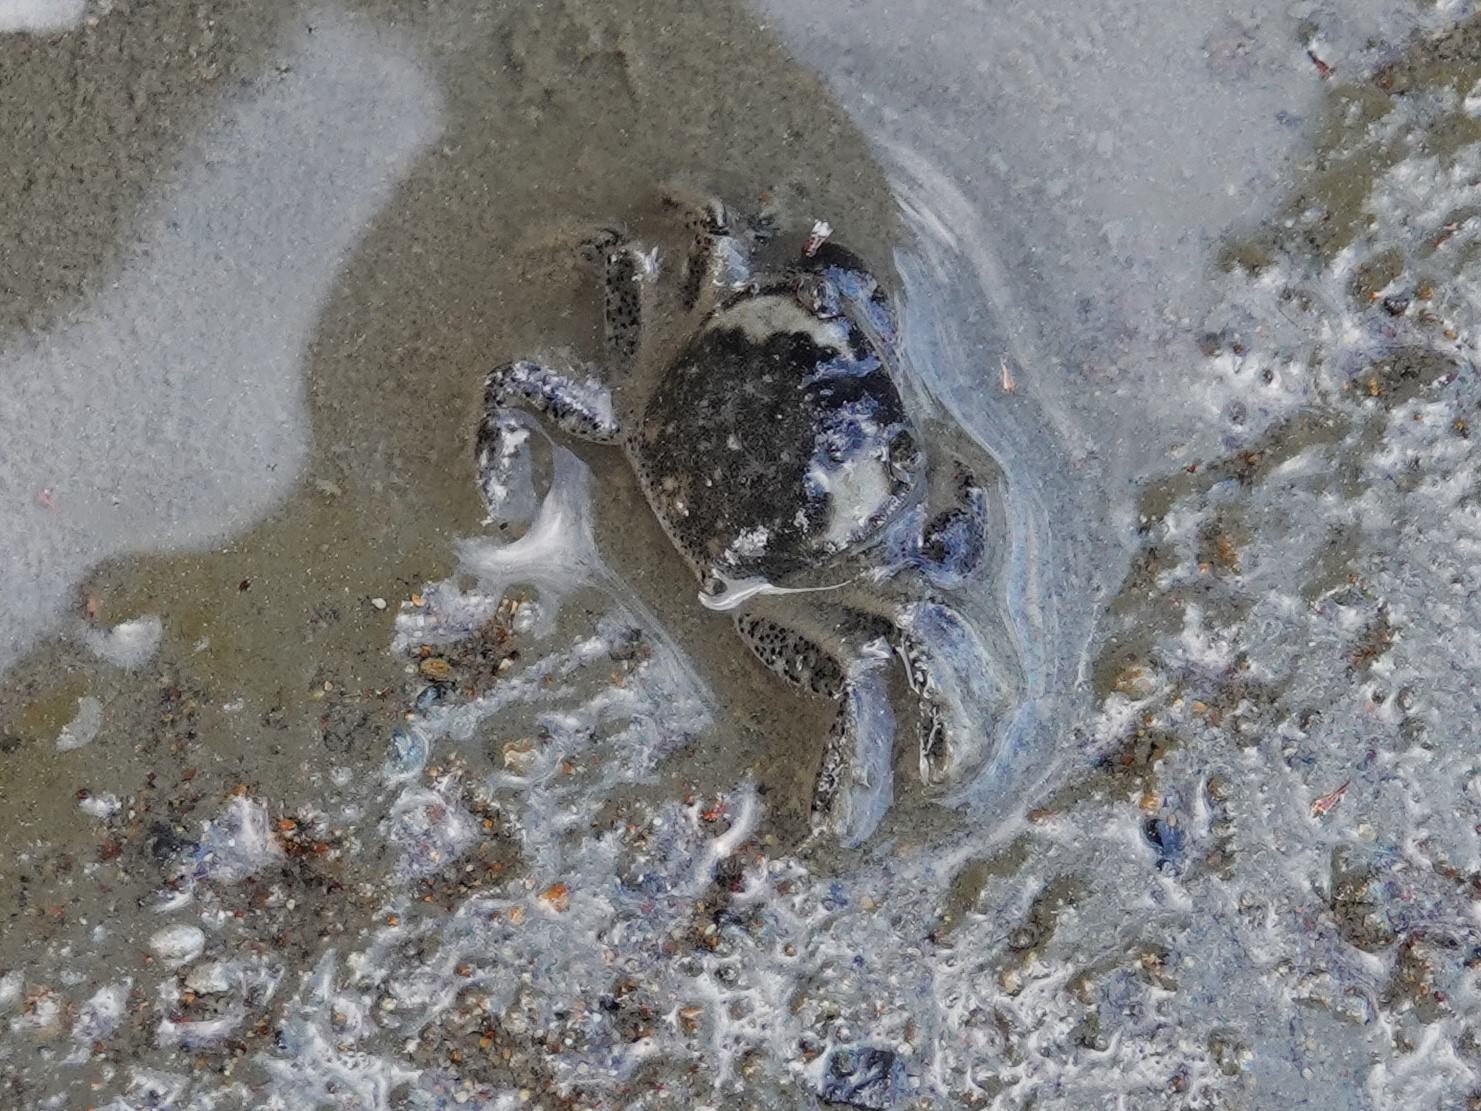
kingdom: Animalia
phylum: Arthropoda
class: Malacostraca
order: Decapoda
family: Varunidae
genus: Hemigrapsus
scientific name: Hemigrapsus crenulatus
